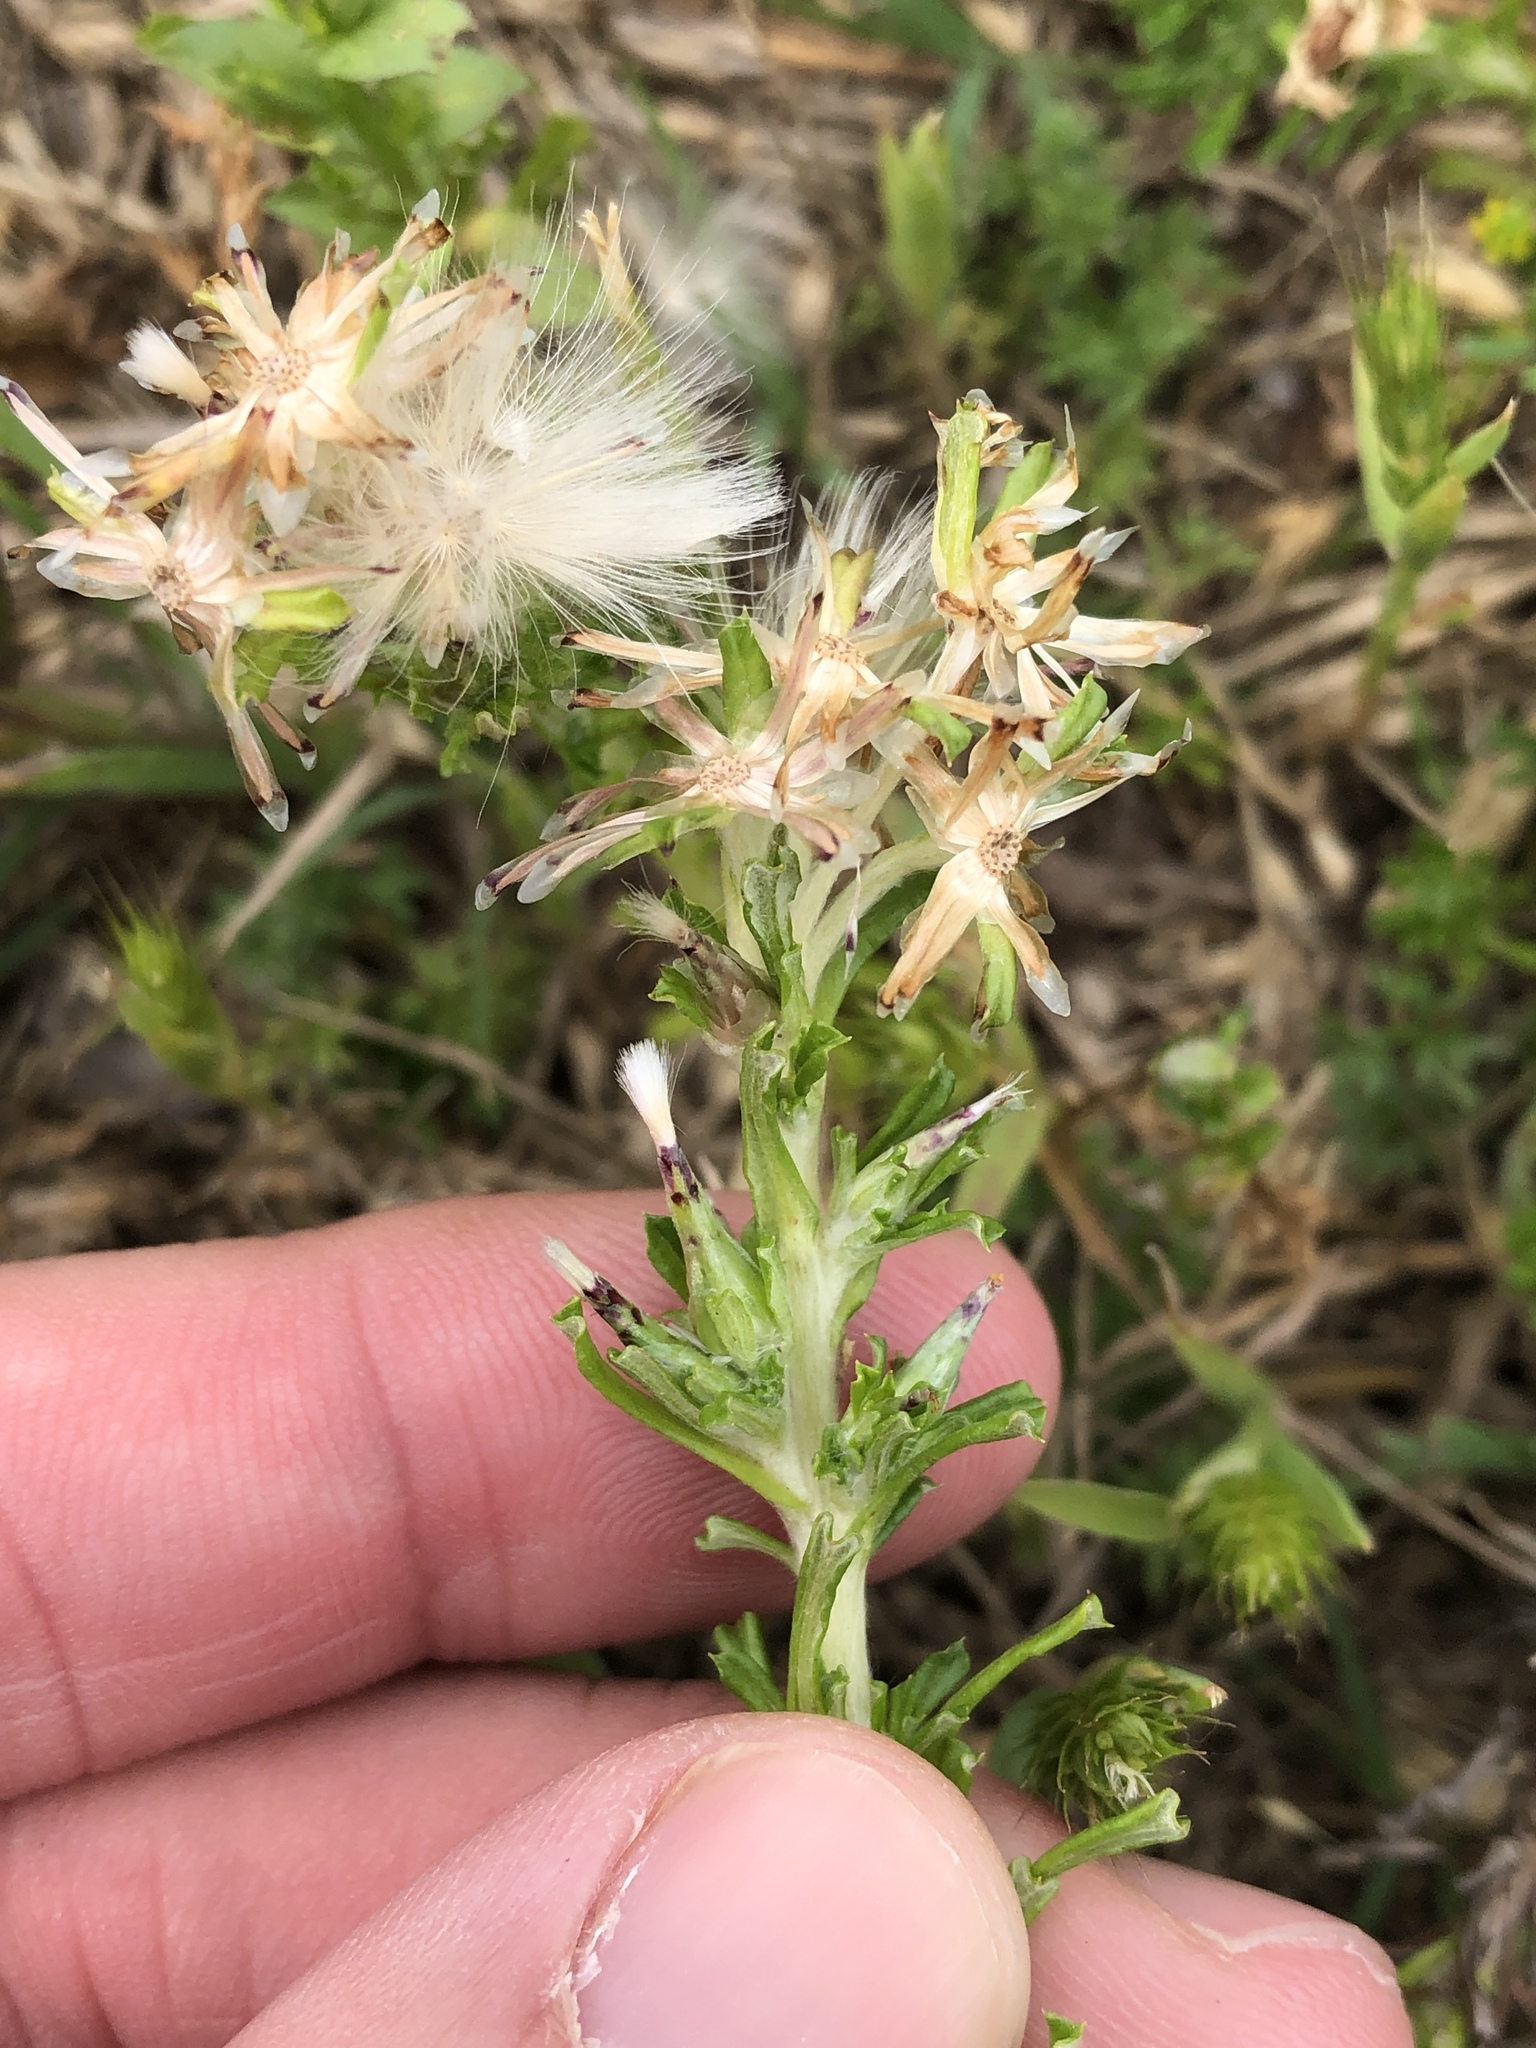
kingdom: Plantae
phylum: Tracheophyta
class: Magnoliopsida
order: Asterales
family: Asteraceae
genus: Facelis
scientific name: Facelis retusa
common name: Annual trampweed
